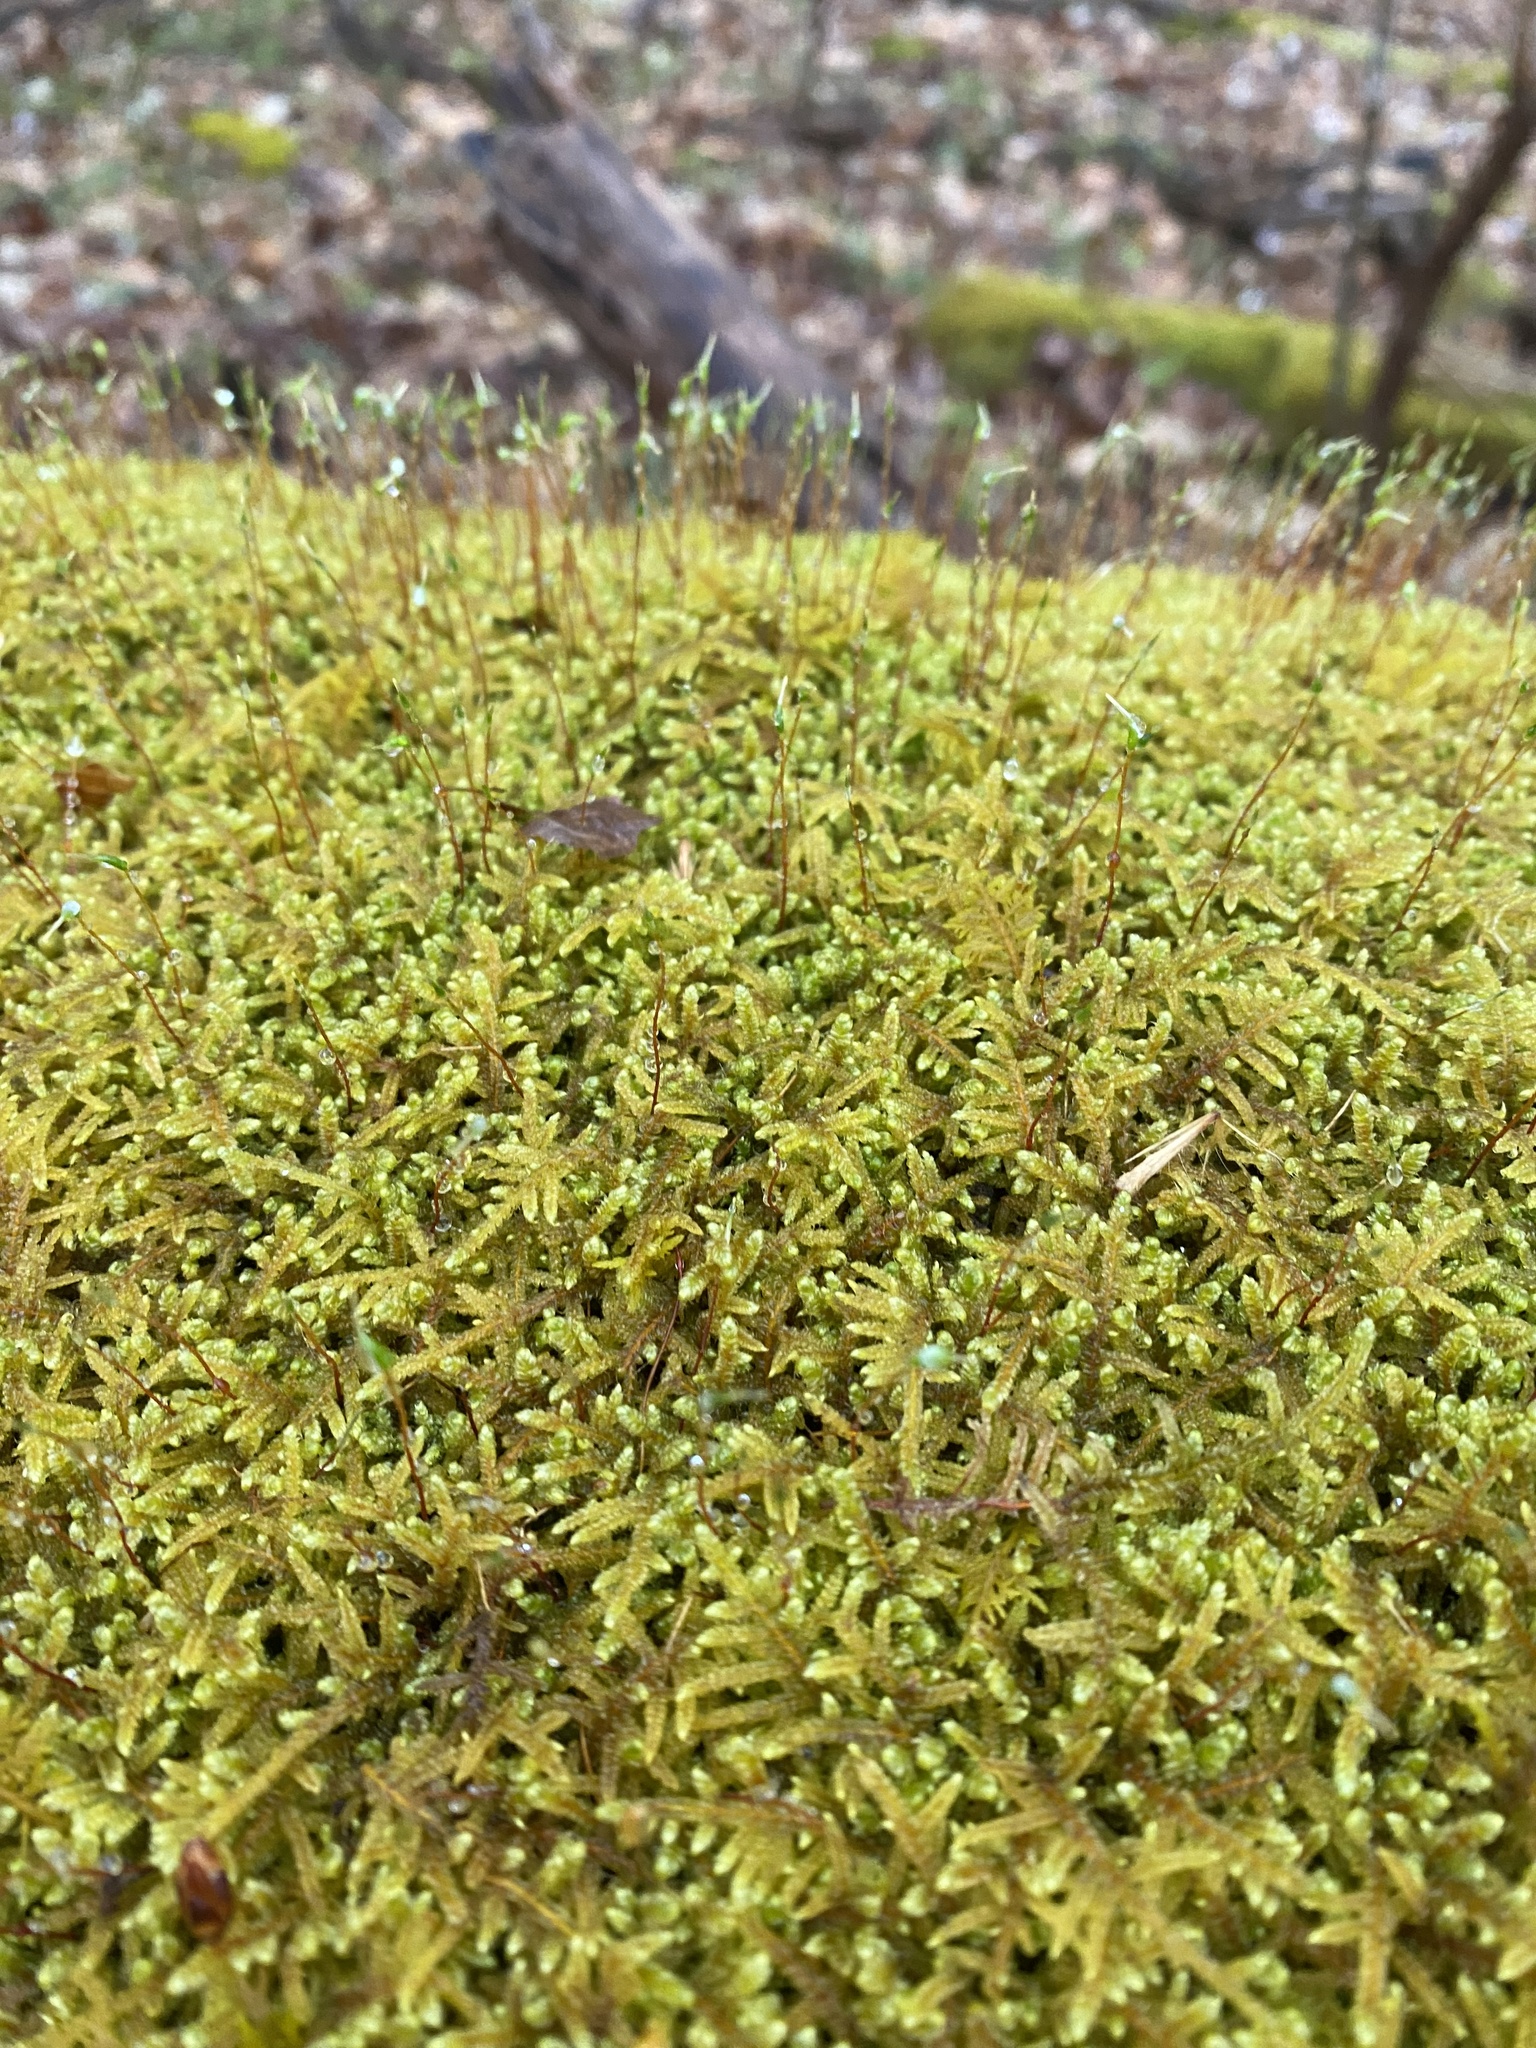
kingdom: Plantae
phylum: Bryophyta
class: Bryopsida
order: Hypnales
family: Pylaisiaceae
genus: Calliergonella
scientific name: Calliergonella curvifolia
